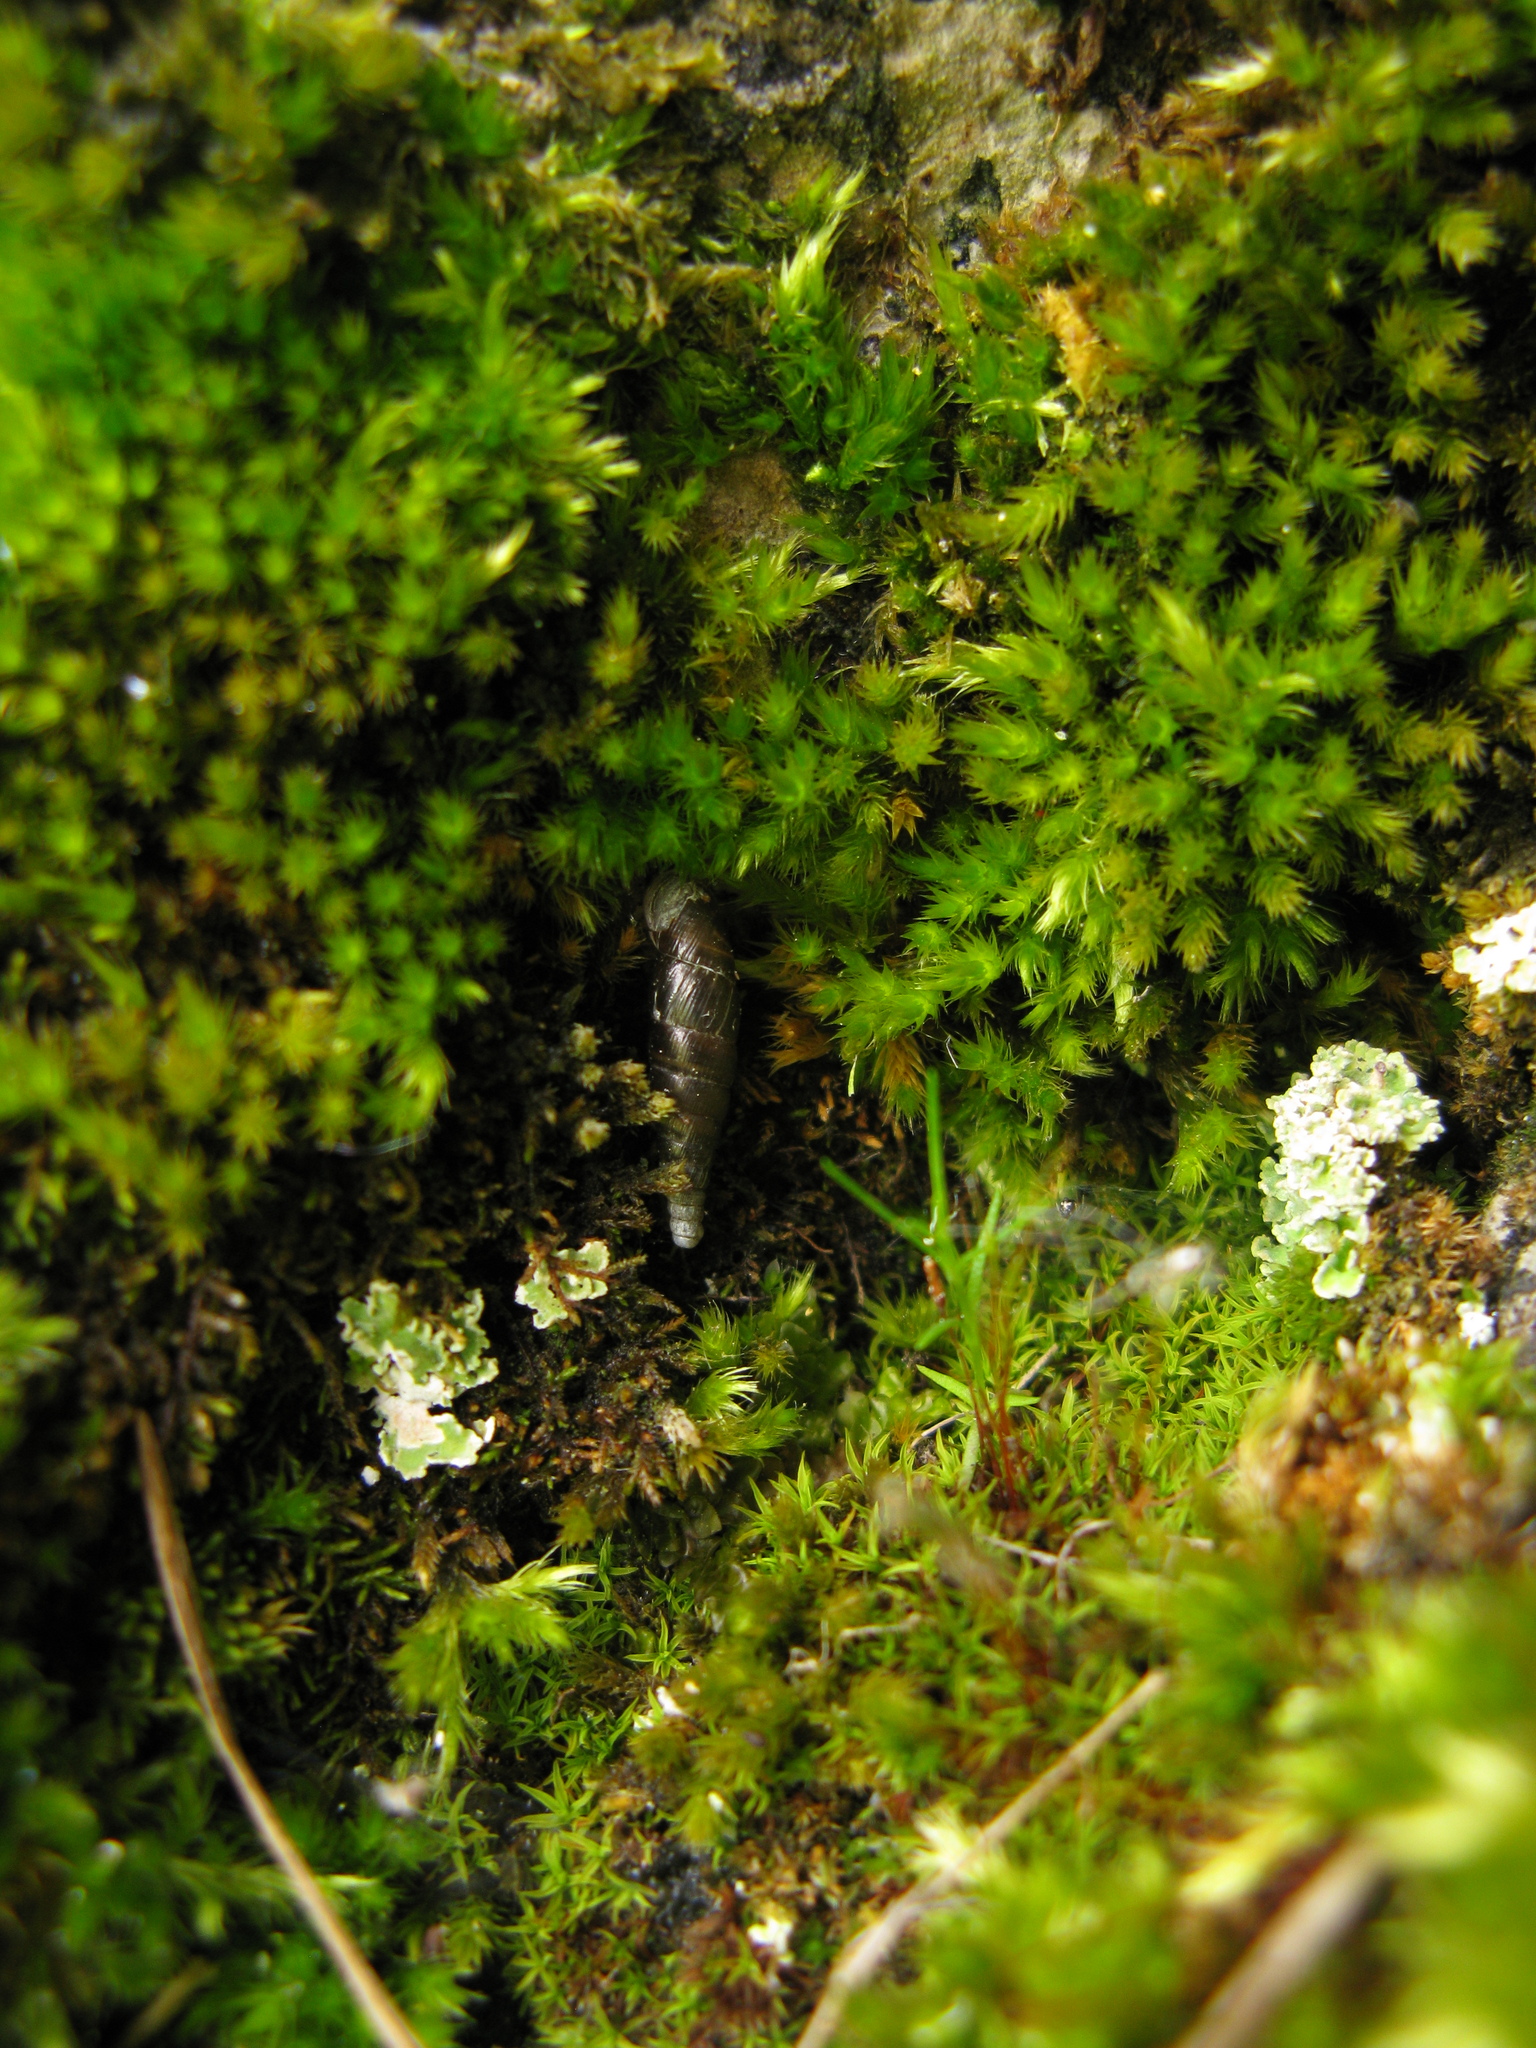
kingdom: Fungi
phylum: Ascomycota
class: Lecanoromycetes
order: Lecanorales
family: Cladoniaceae
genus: Cladonia
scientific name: Cladonia
